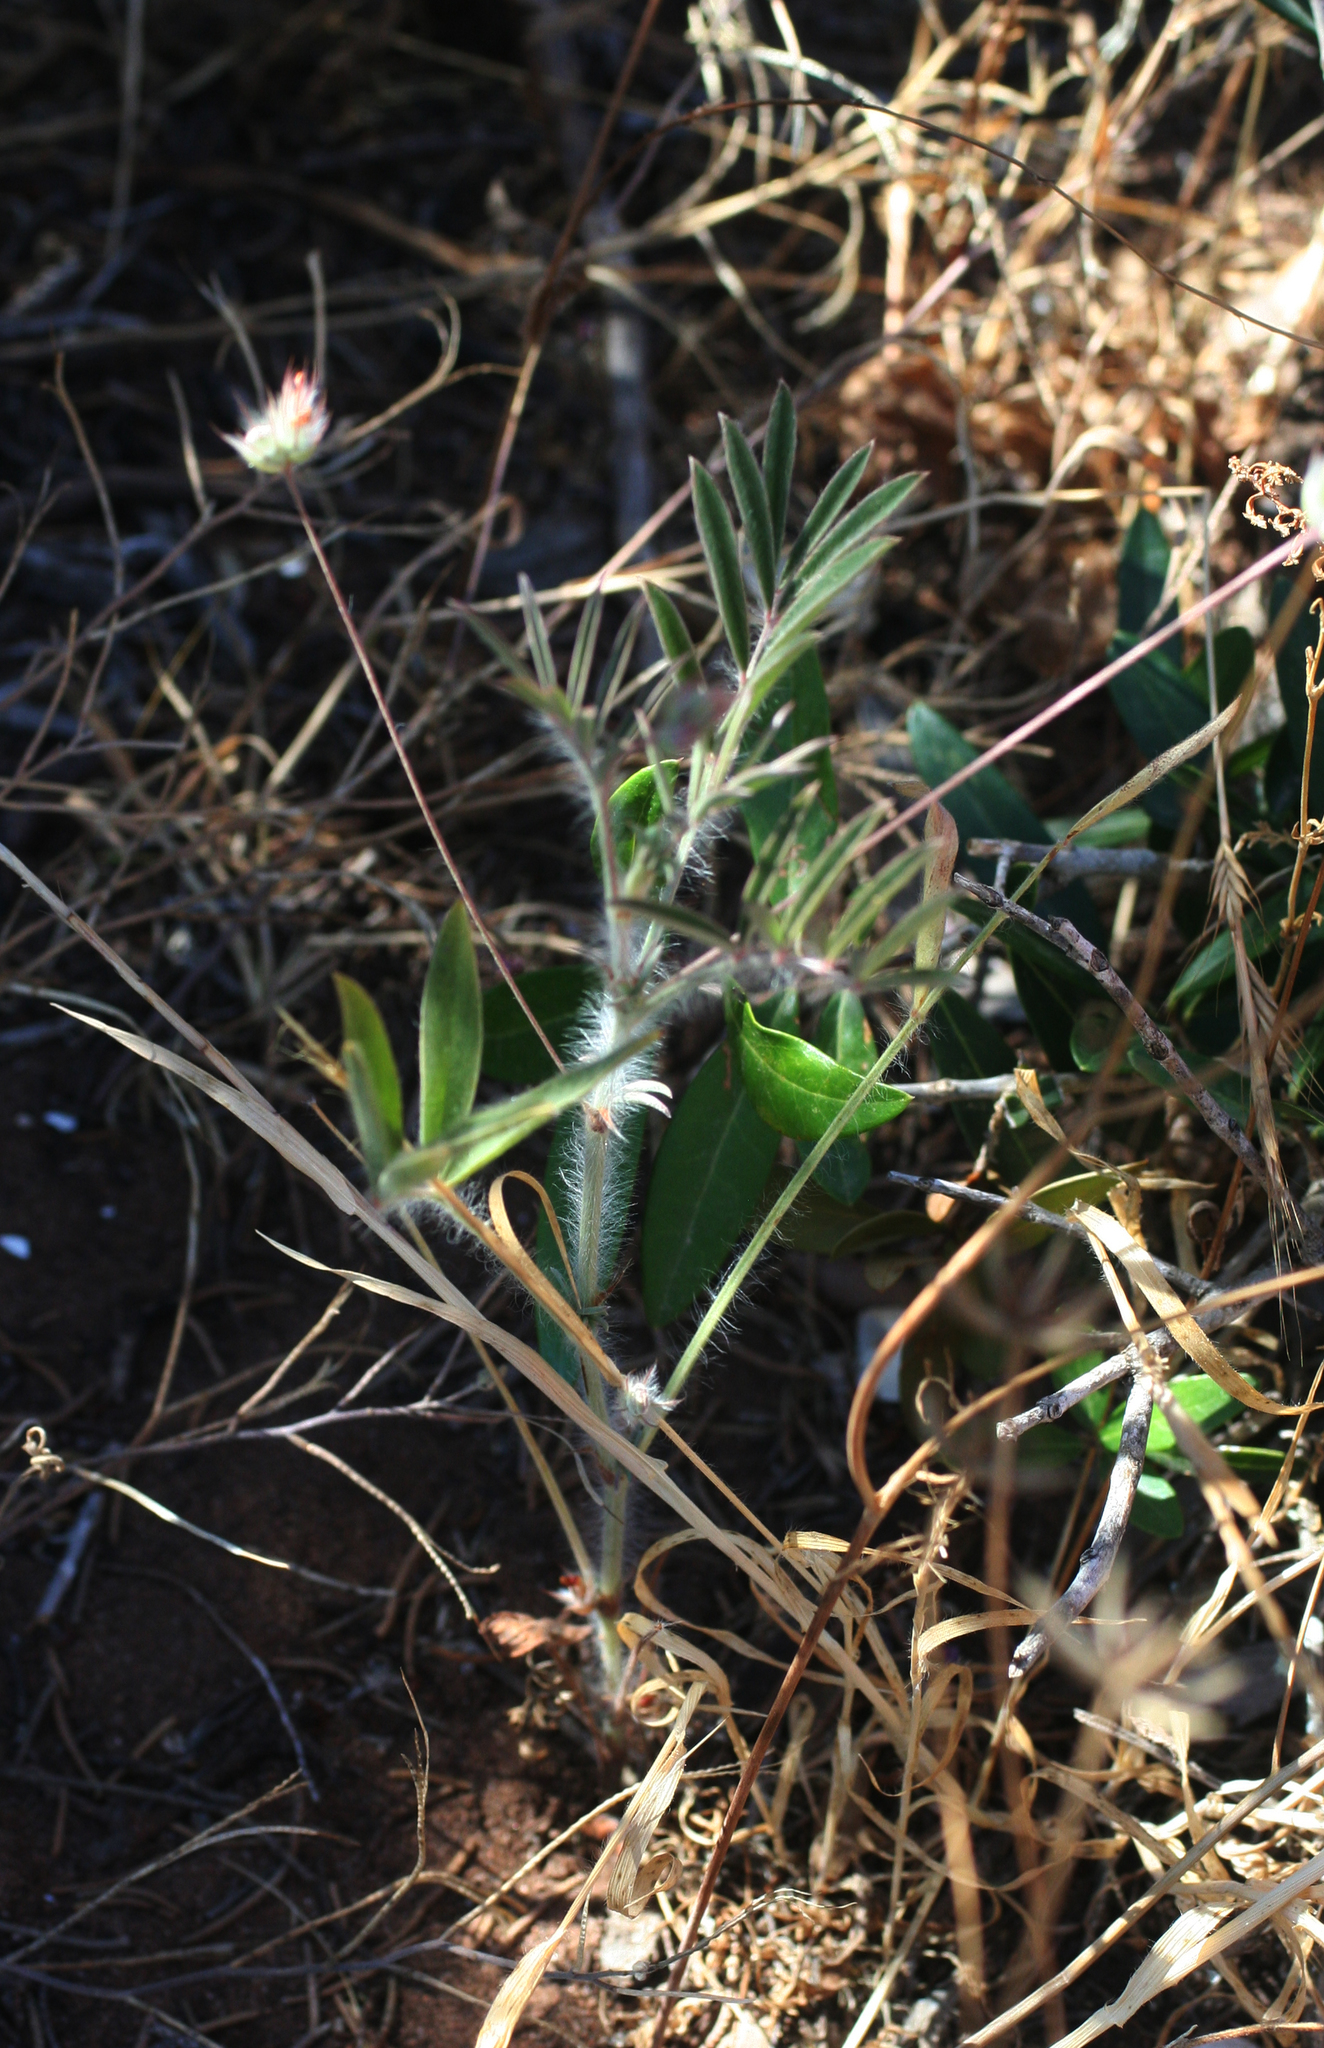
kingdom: Plantae
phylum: Tracheophyta
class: Magnoliopsida
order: Fabales
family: Fabaceae
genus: Ebenus
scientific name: Ebenus pinnata
